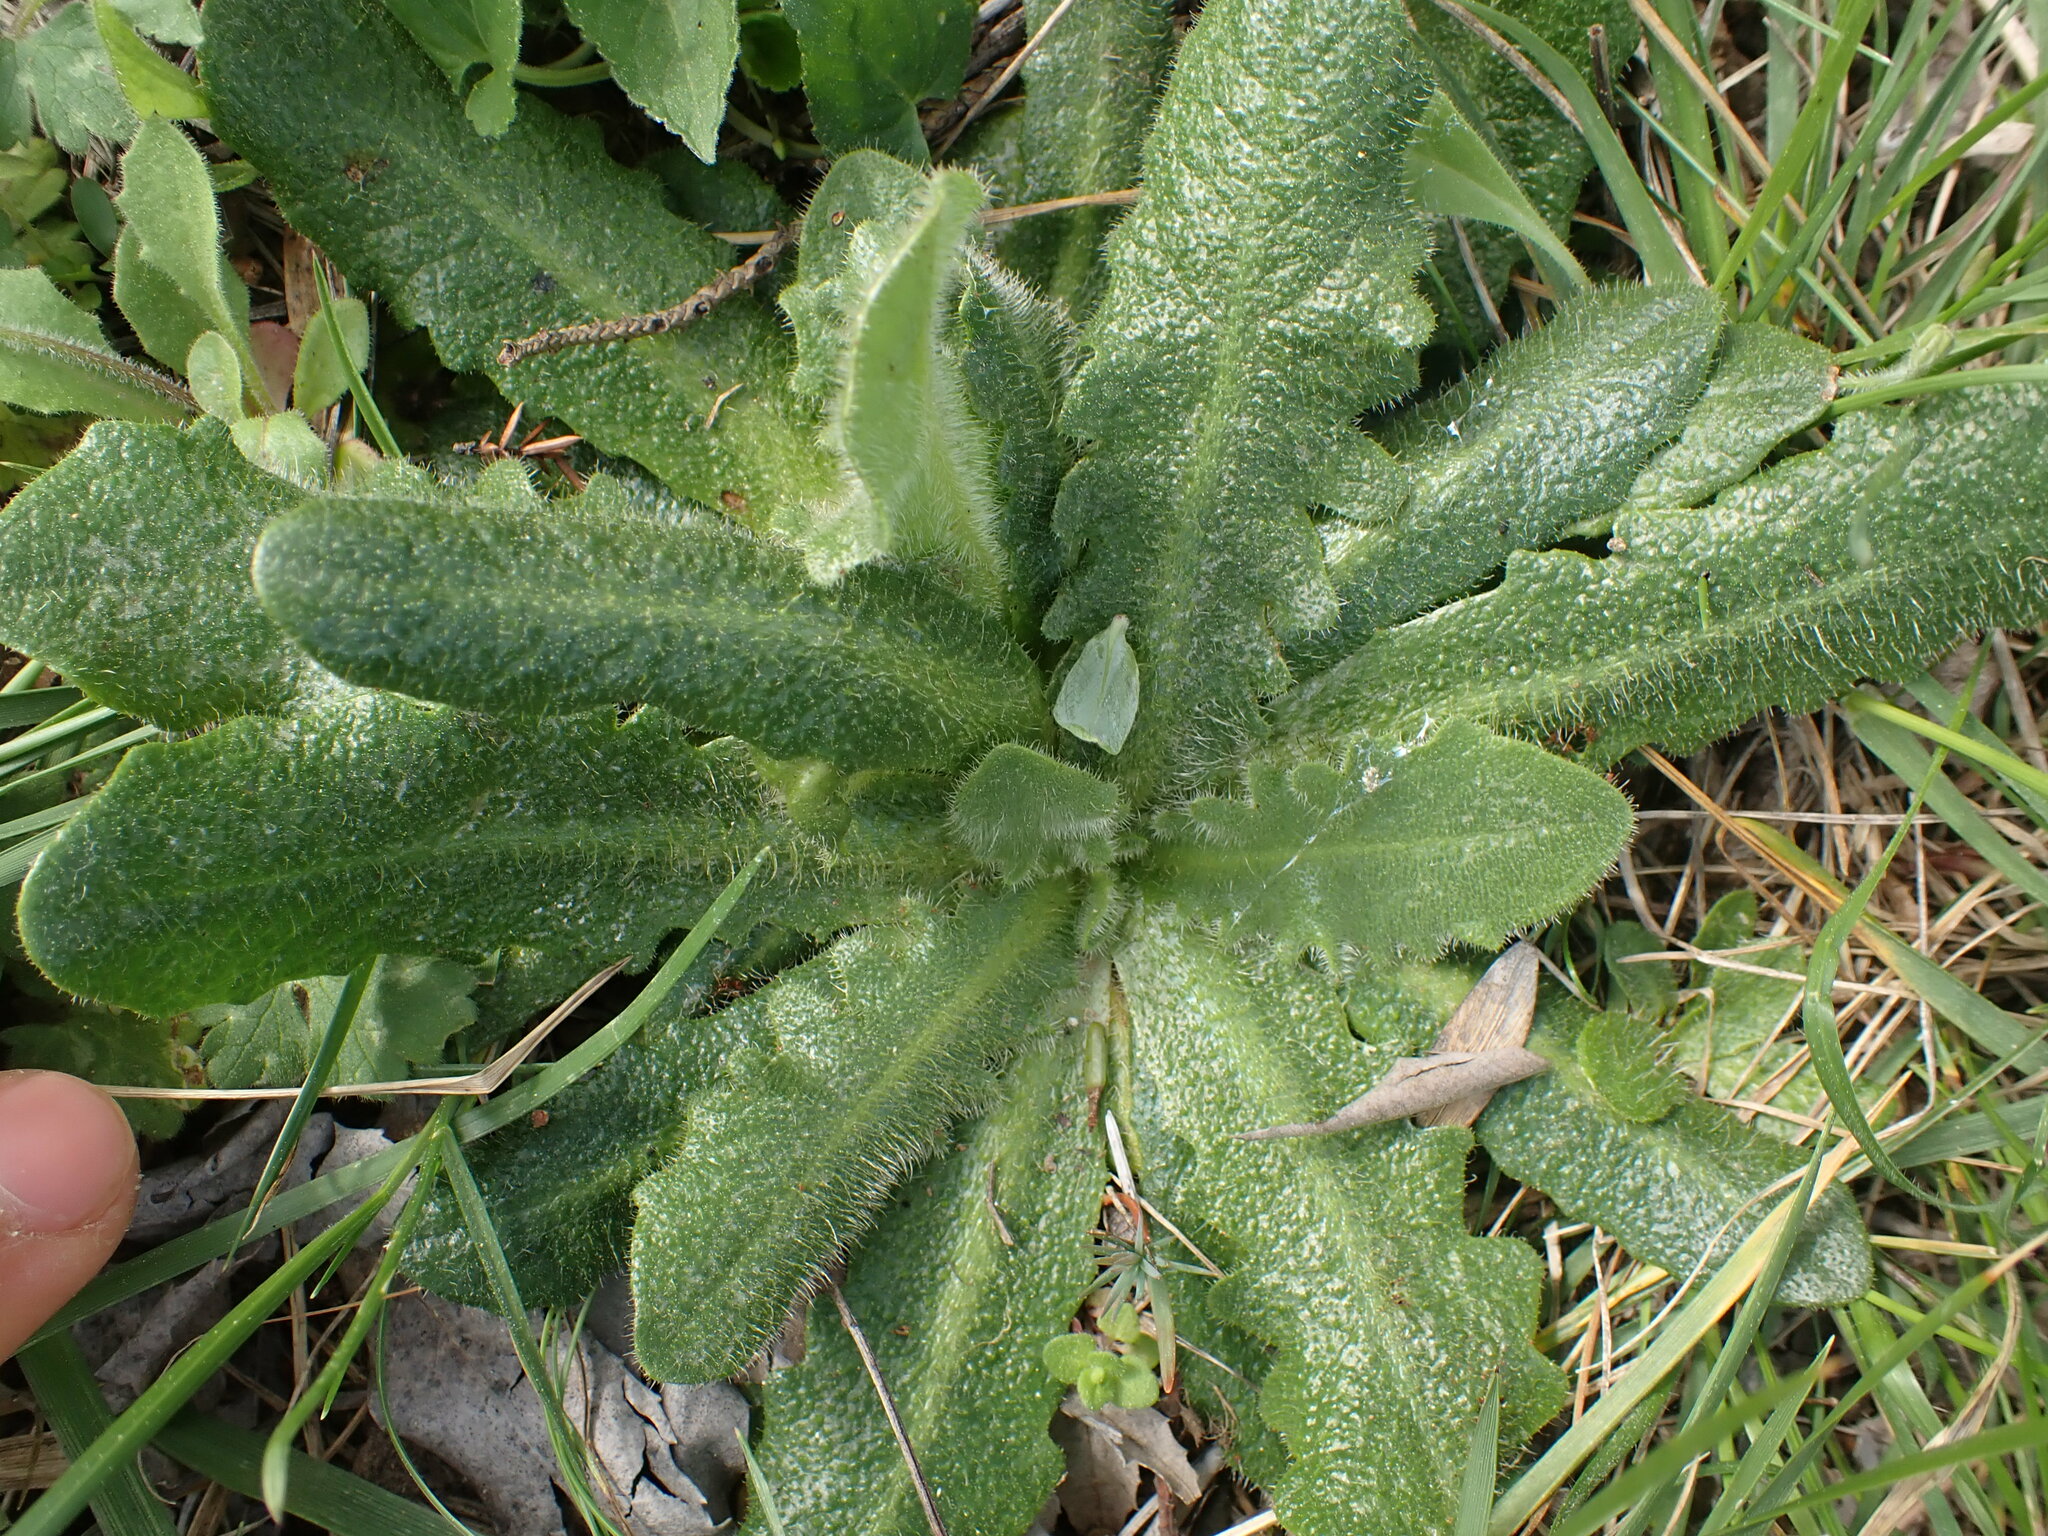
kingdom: Plantae
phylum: Tracheophyta
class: Magnoliopsida
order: Asterales
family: Asteraceae
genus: Hypochaeris
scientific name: Hypochaeris radicata
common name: Flatweed
